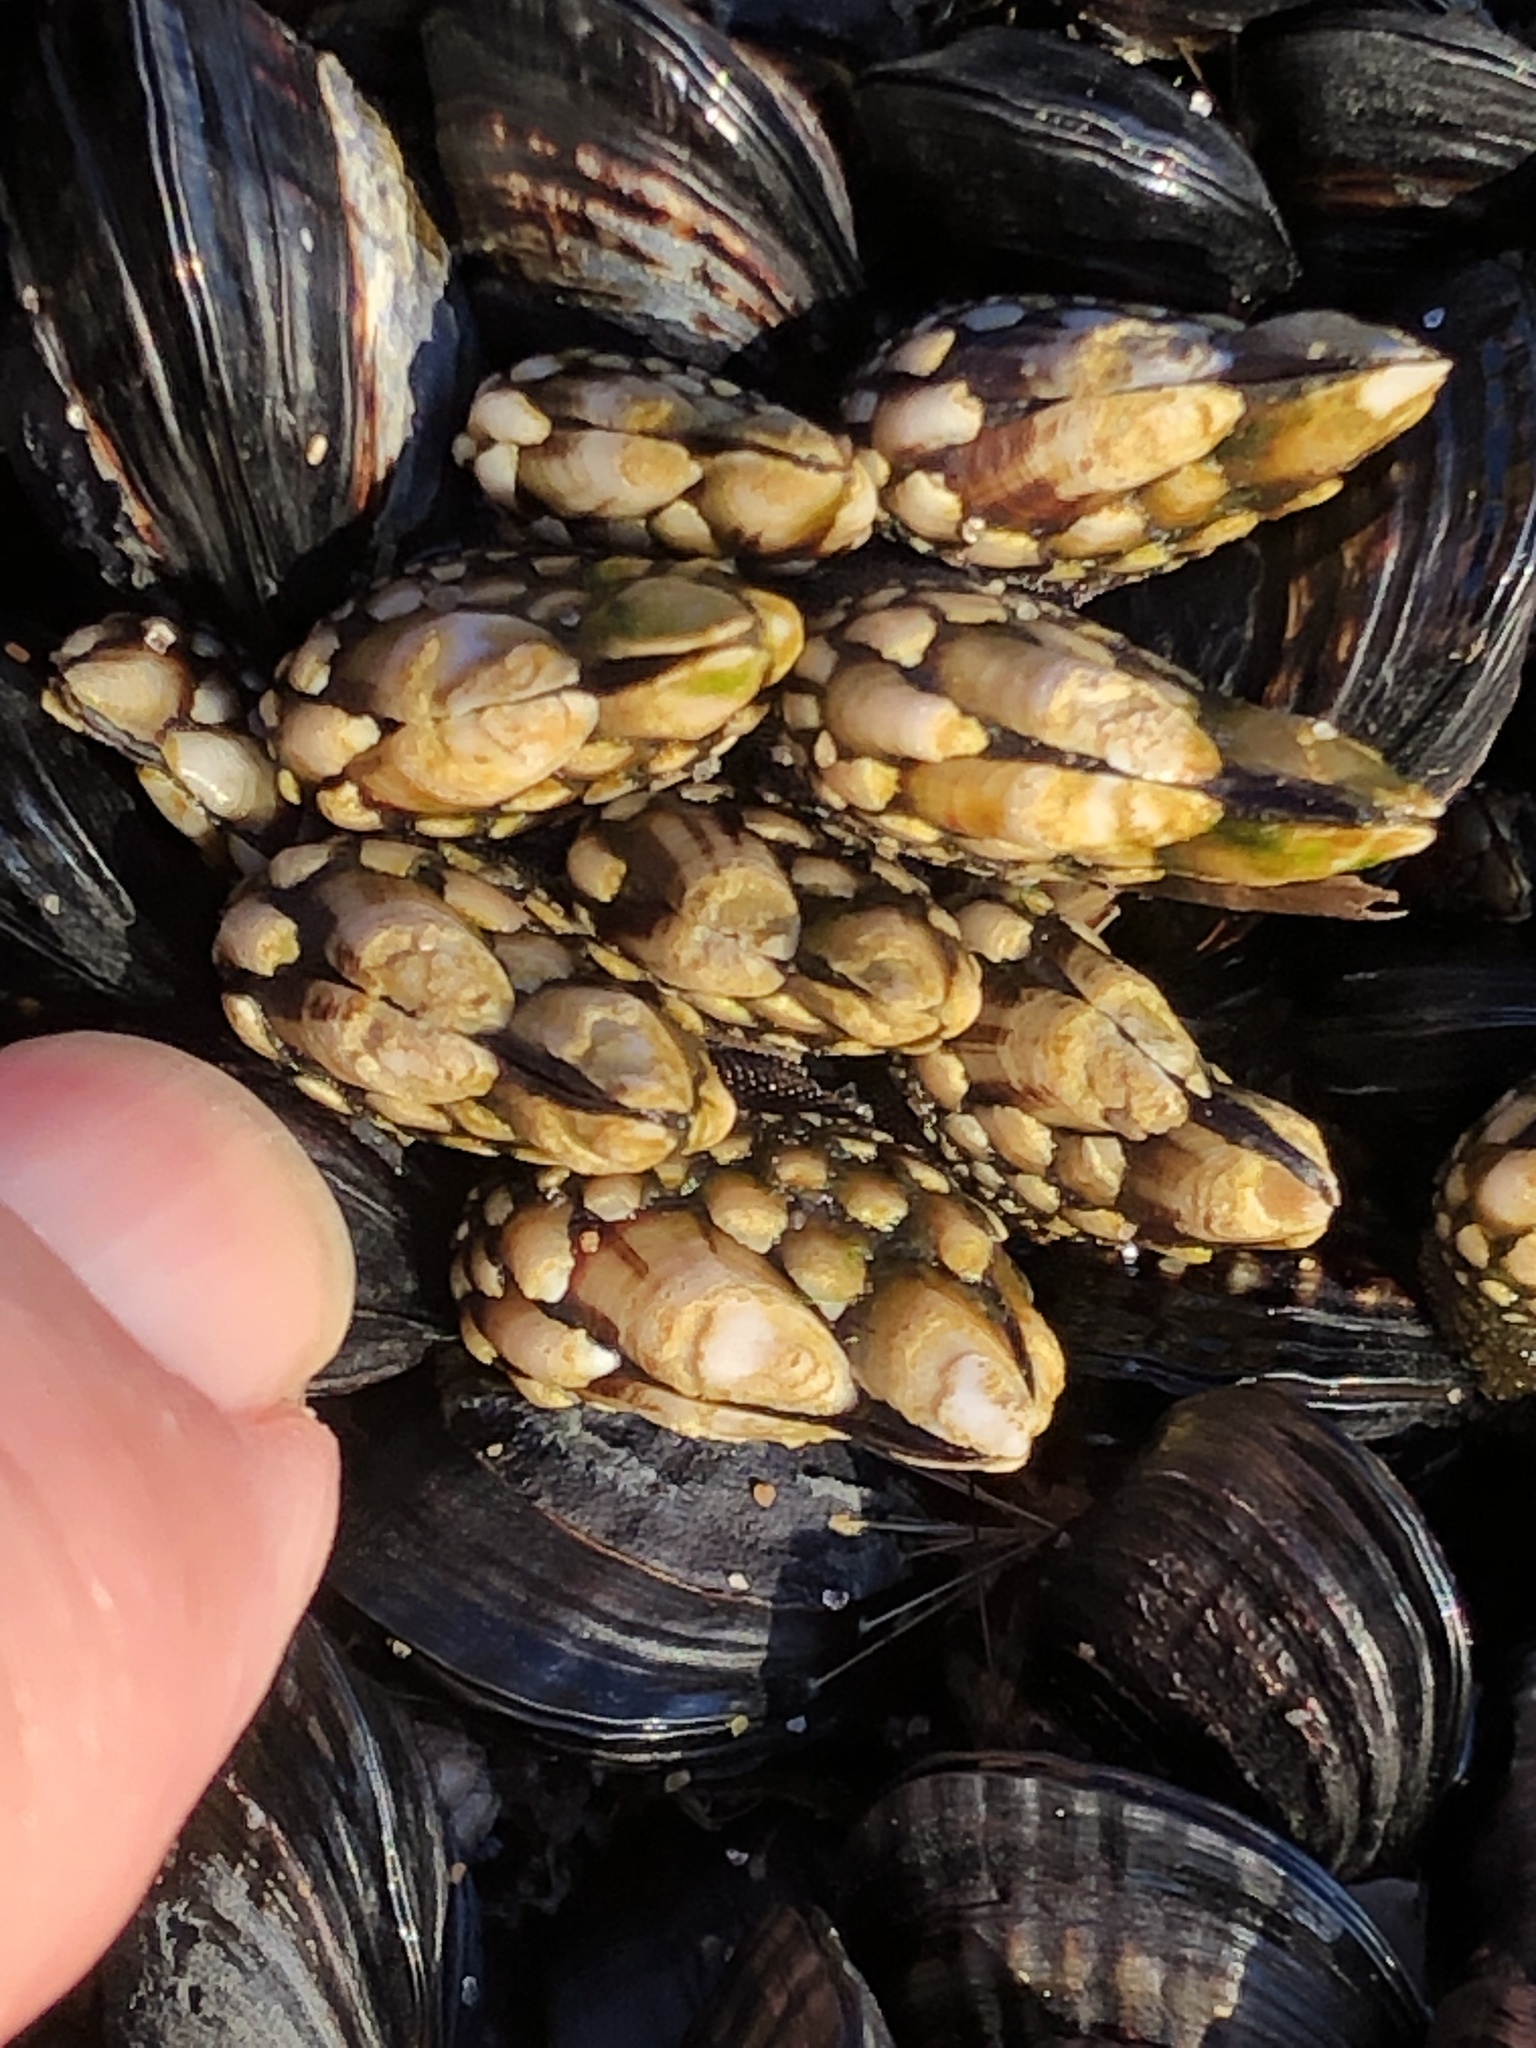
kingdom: Animalia
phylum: Arthropoda
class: Maxillopoda
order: Pedunculata
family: Pollicipedidae
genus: Pollicipes
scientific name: Pollicipes polymerus
